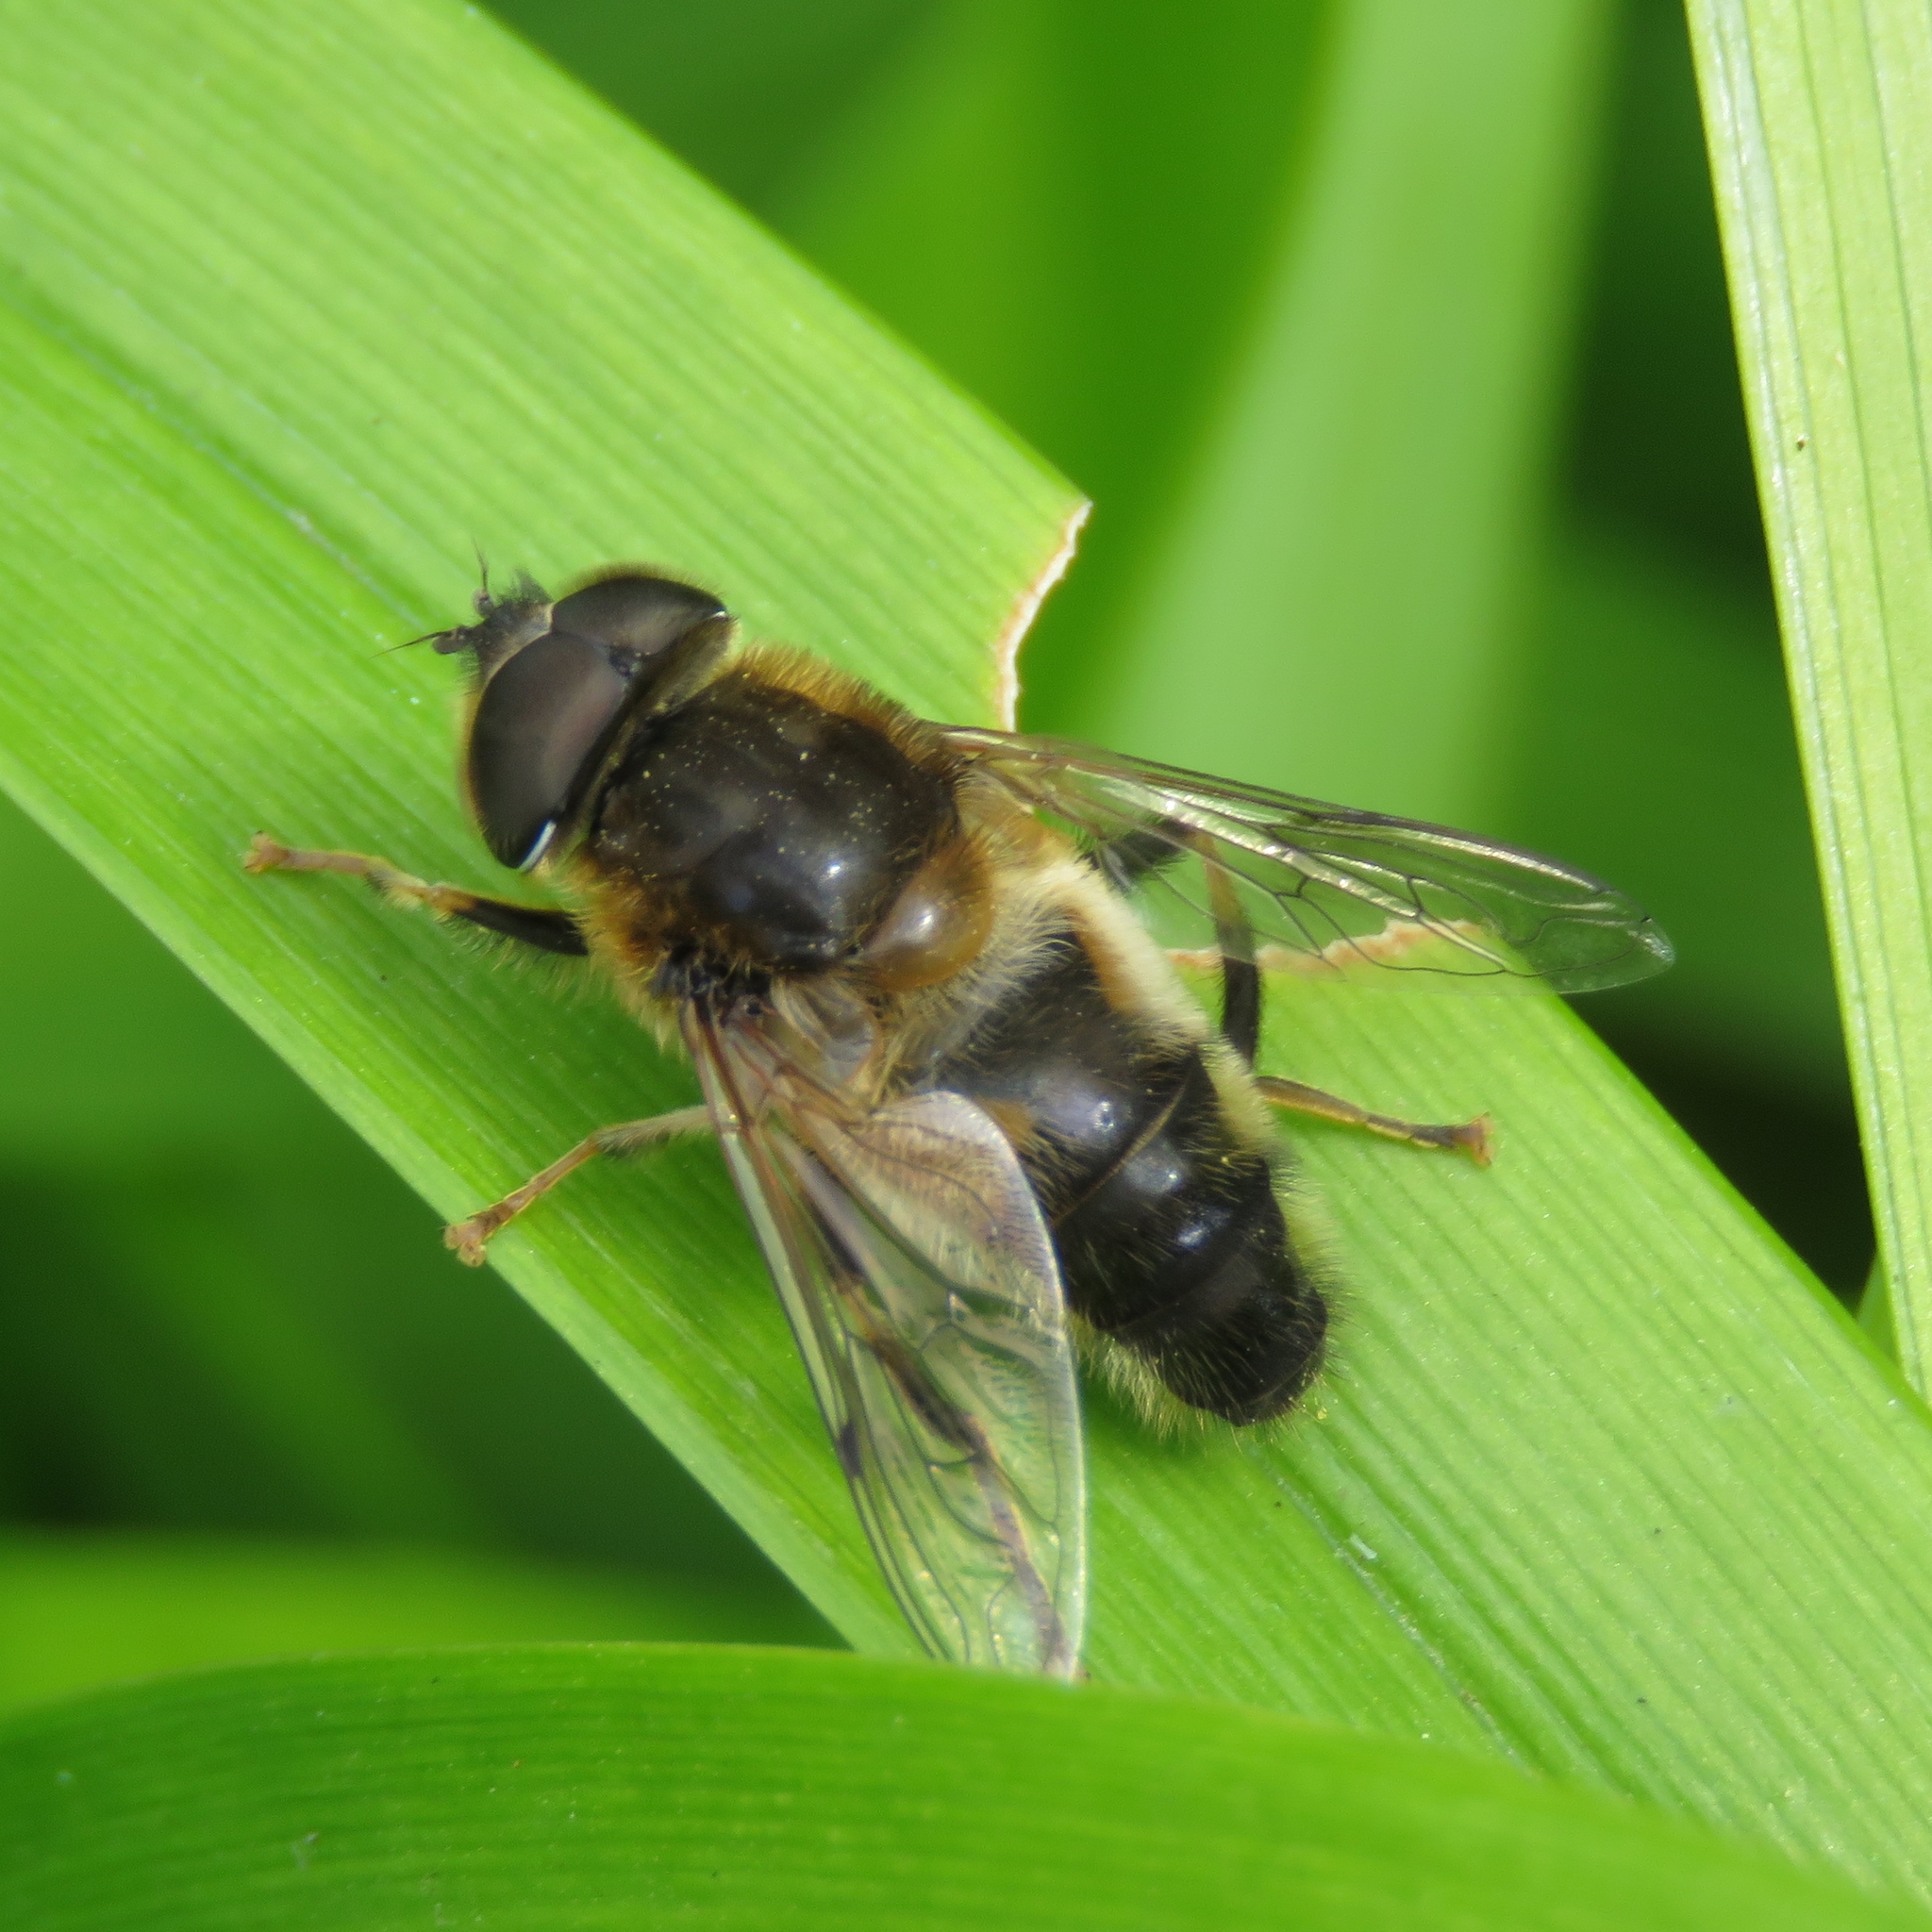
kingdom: Animalia
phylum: Arthropoda
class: Insecta
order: Diptera
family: Syrphidae
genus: Eristalis
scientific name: Eristalis pertinax
